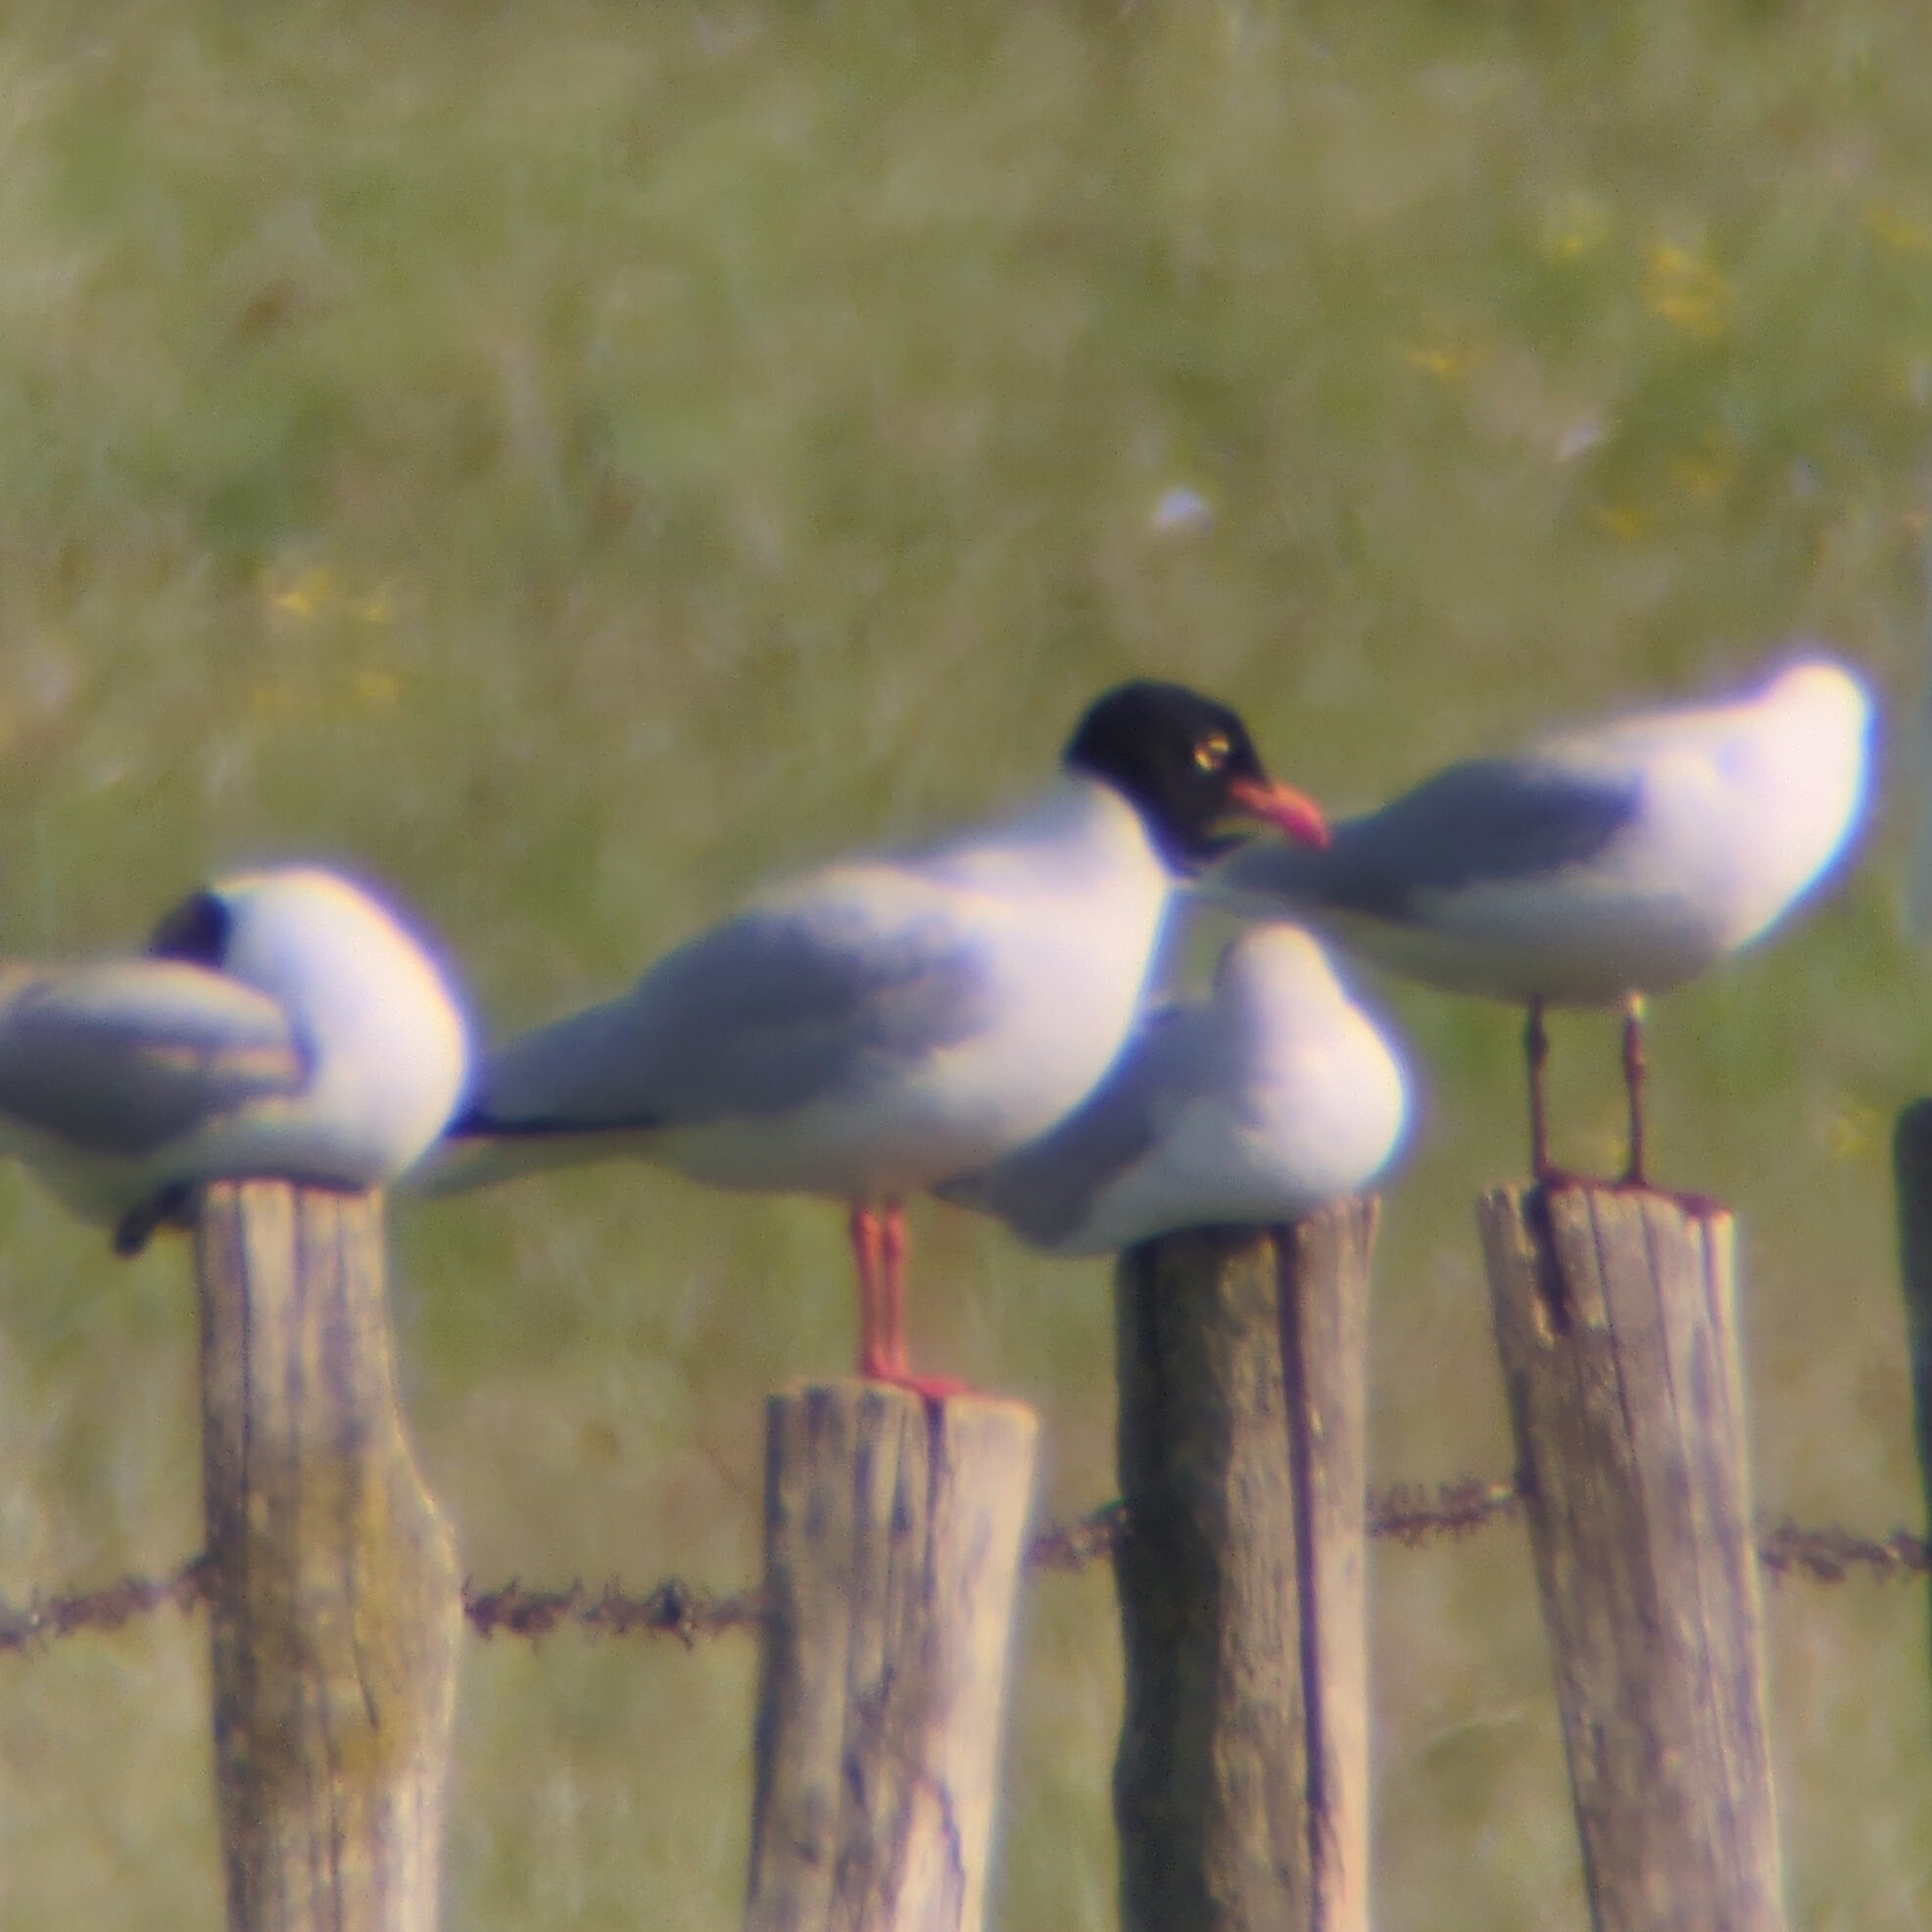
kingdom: Animalia
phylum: Chordata
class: Aves
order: Charadriiformes
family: Laridae
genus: Ichthyaetus
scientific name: Ichthyaetus melanocephalus
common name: Mediterranean gull
